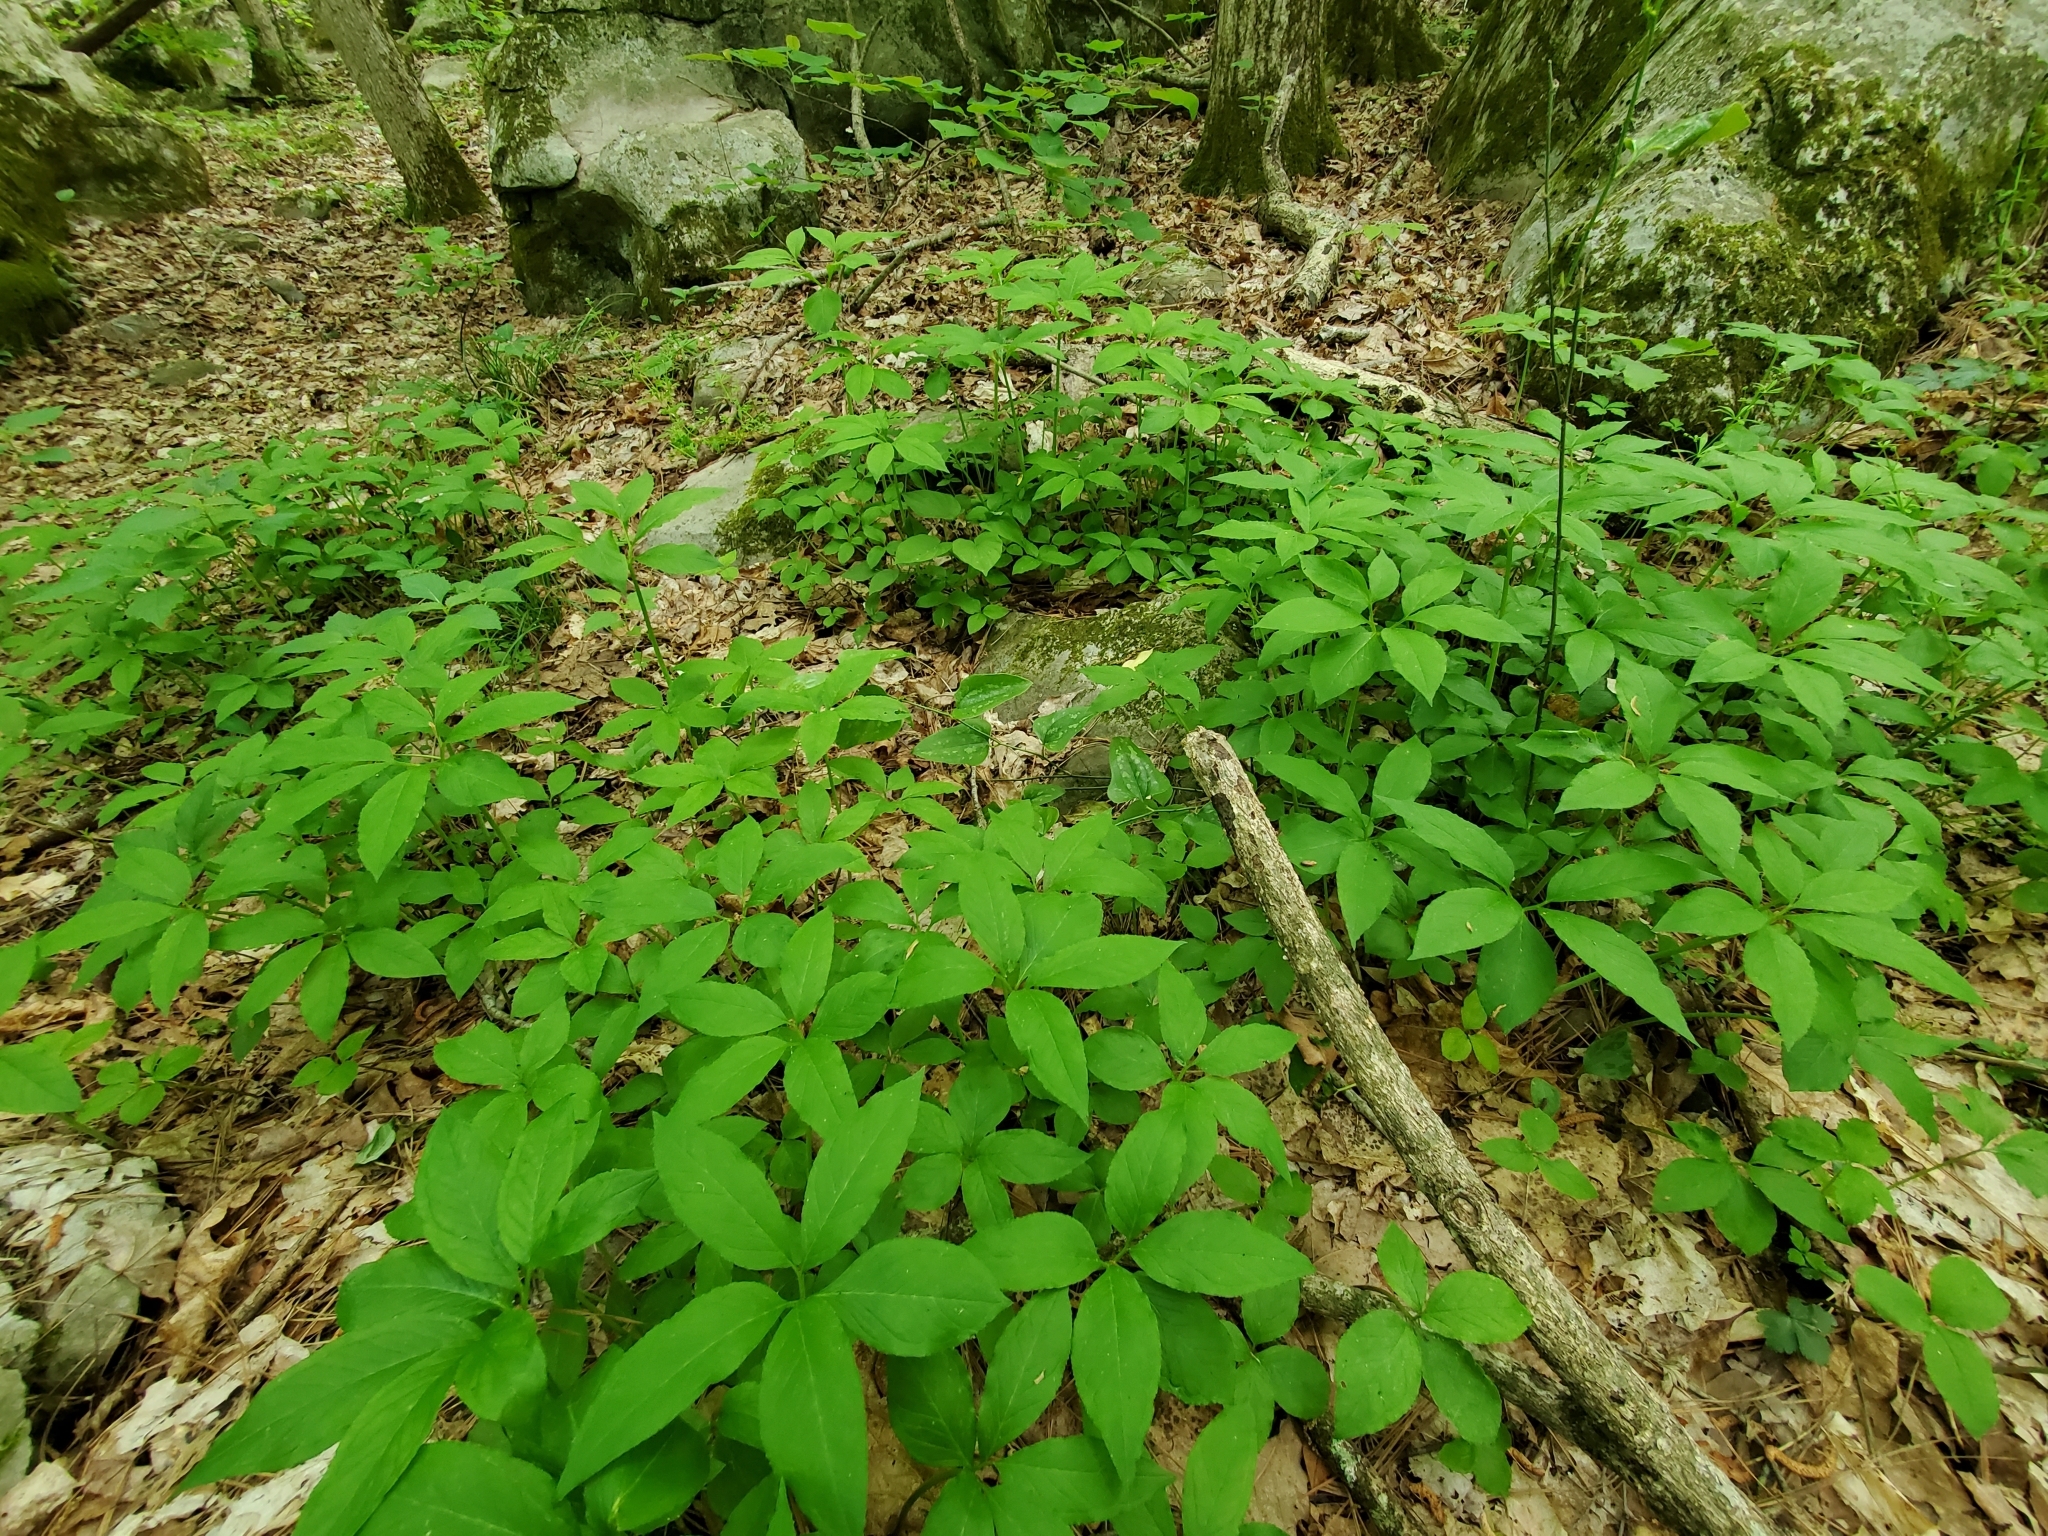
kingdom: Plantae
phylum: Tracheophyta
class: Liliopsida
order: Alismatales
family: Araceae
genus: Arisaema
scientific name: Arisaema dracontium
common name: Dragon-arum
